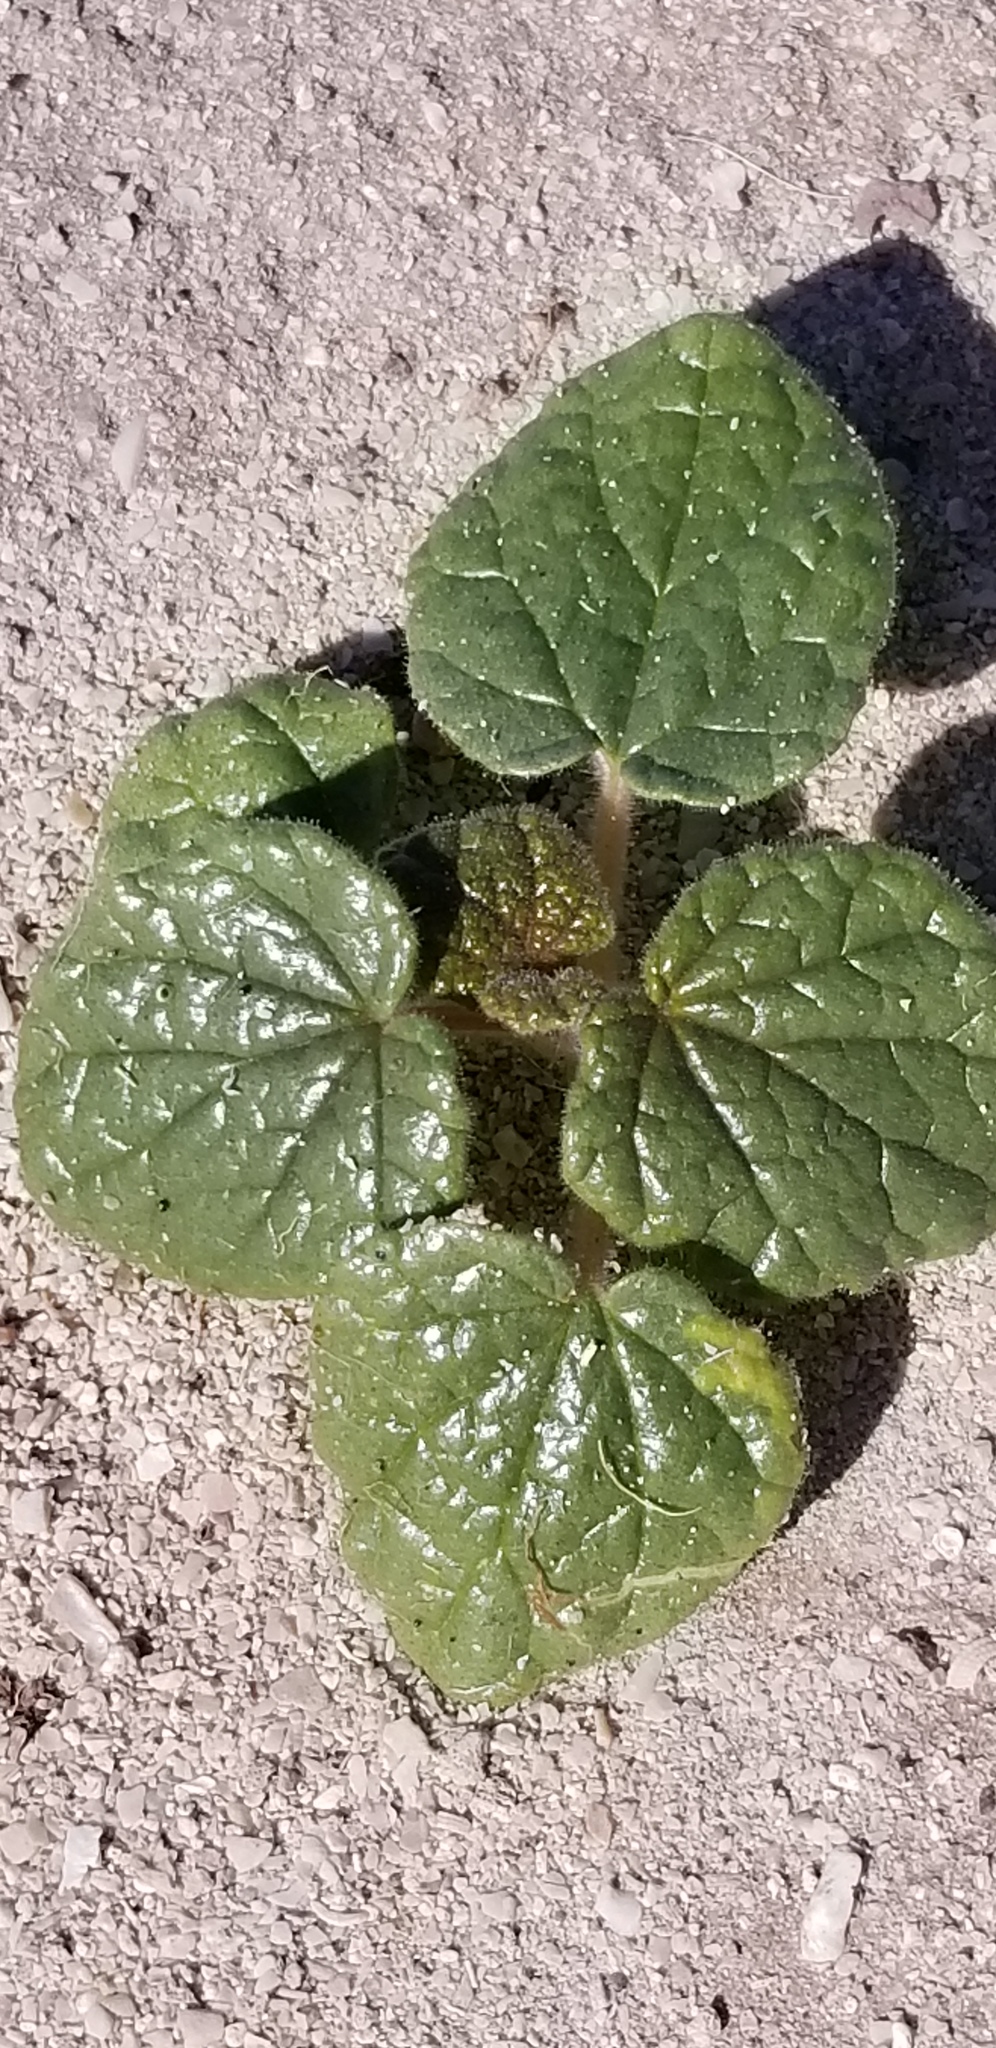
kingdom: Plantae
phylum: Tracheophyta
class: Magnoliopsida
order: Lamiales
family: Martyniaceae
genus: Proboscidea
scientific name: Proboscidea althaeifolia
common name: Desert unicorn-plant
